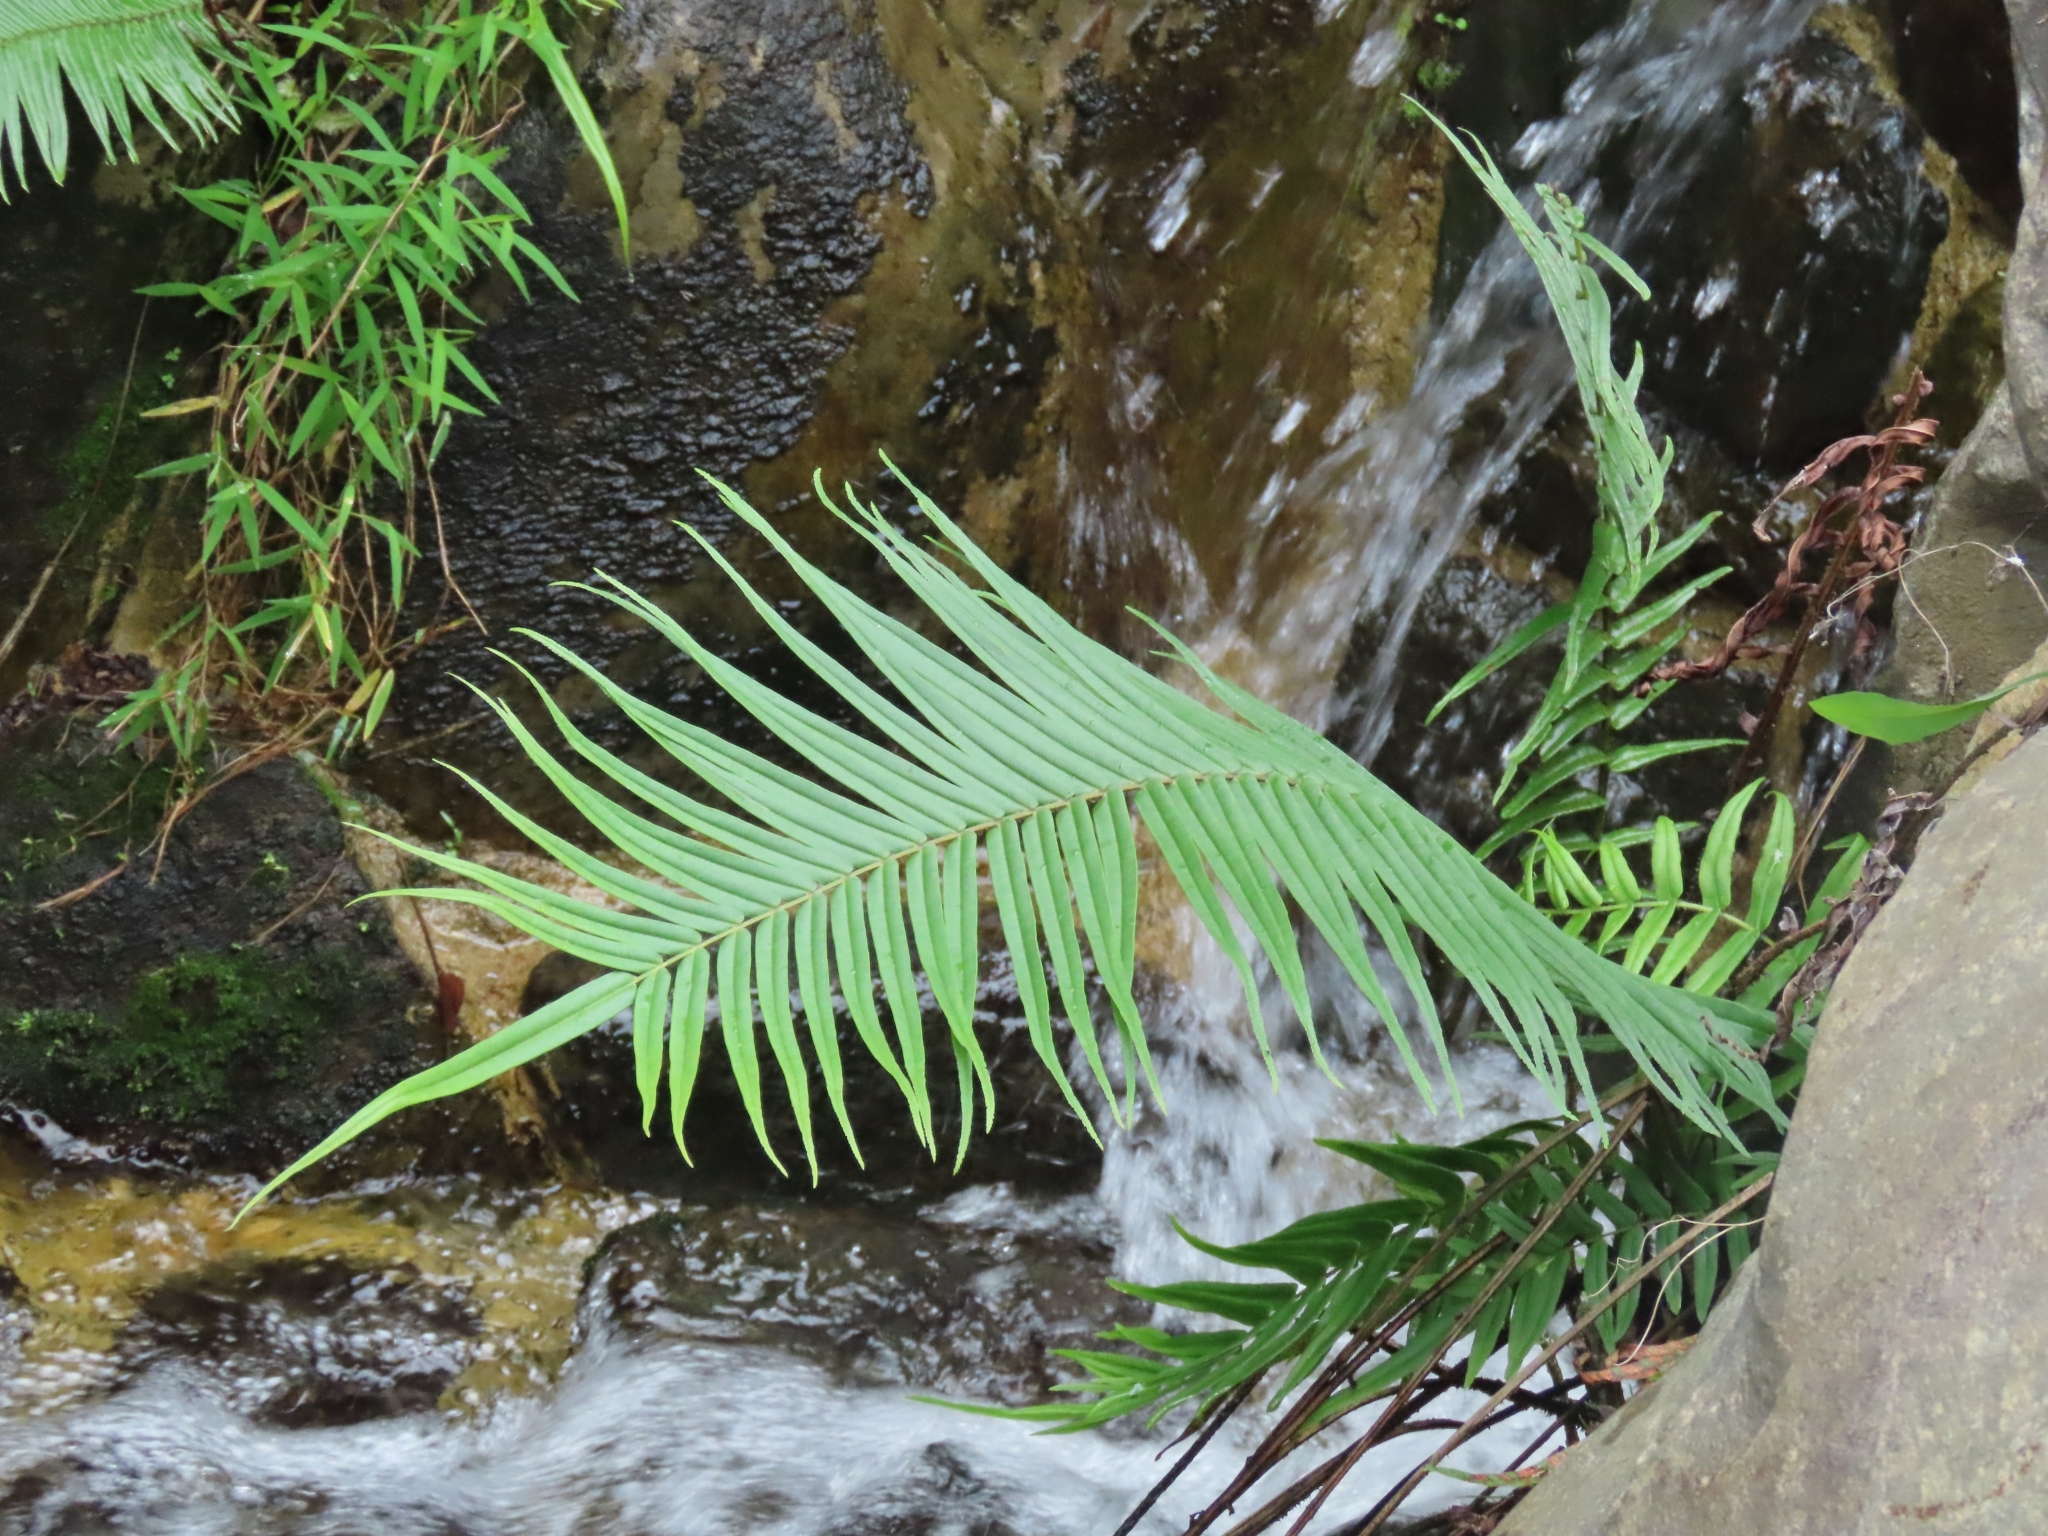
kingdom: Plantae
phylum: Tracheophyta
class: Polypodiopsida
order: Polypodiales
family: Pteridaceae
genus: Pteris
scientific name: Pteris vittata
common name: Ladder brake
